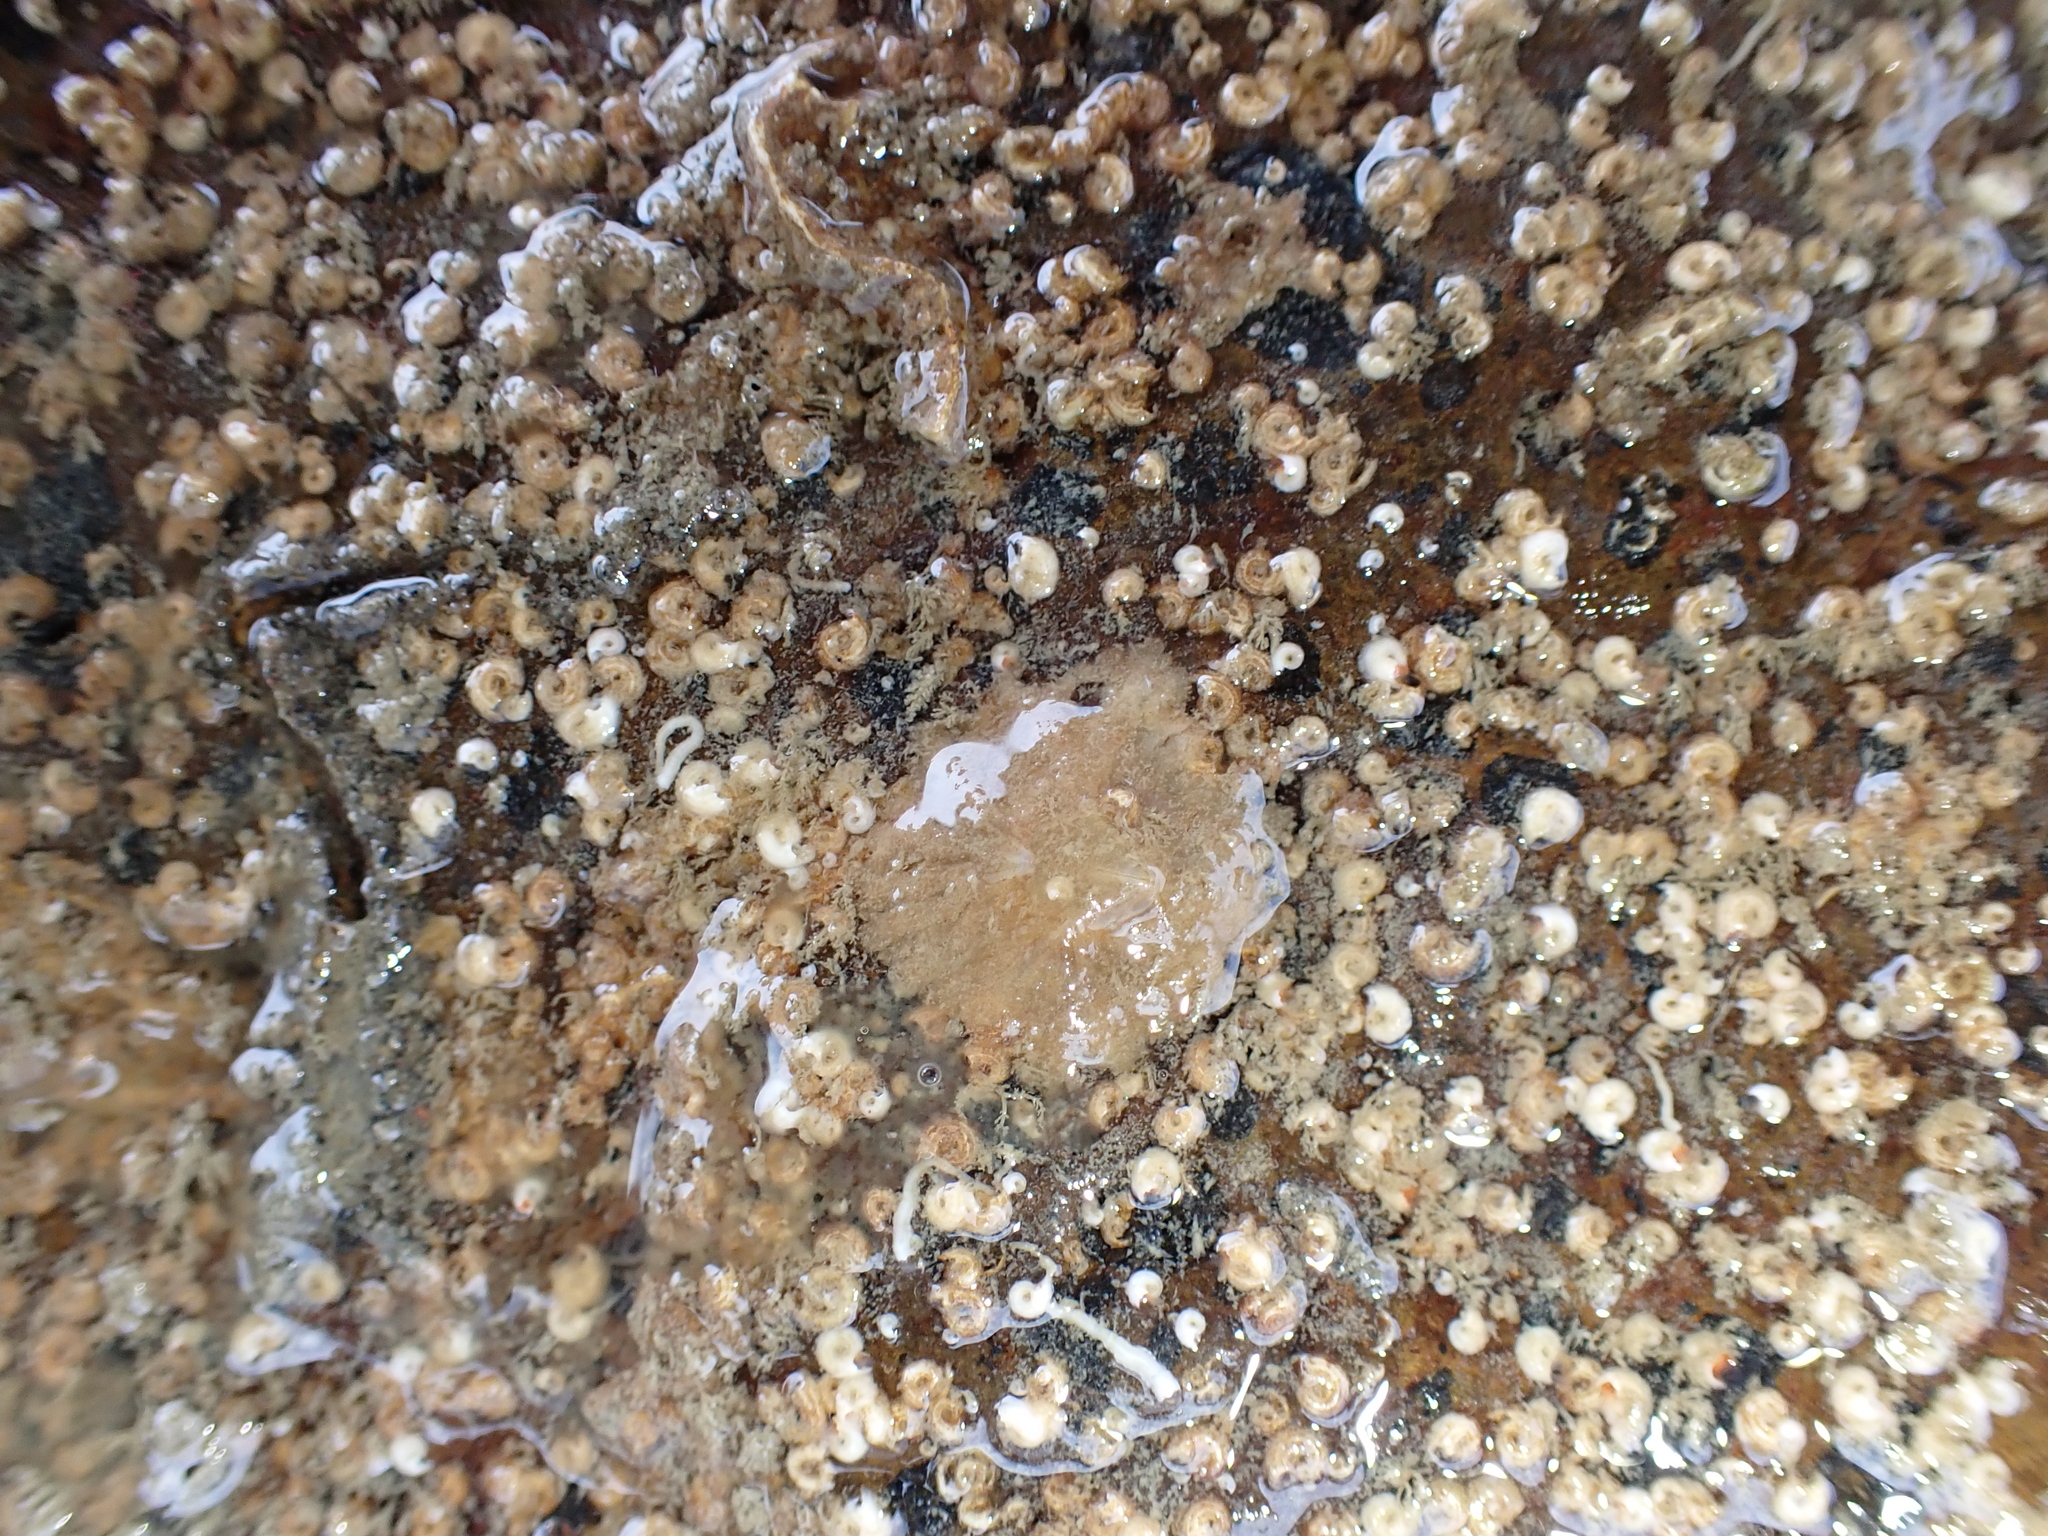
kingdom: Animalia
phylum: Arthropoda
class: Maxillopoda
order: Sessilia
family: Tetraclitidae
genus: Tetraclitella
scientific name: Tetraclitella depressa
